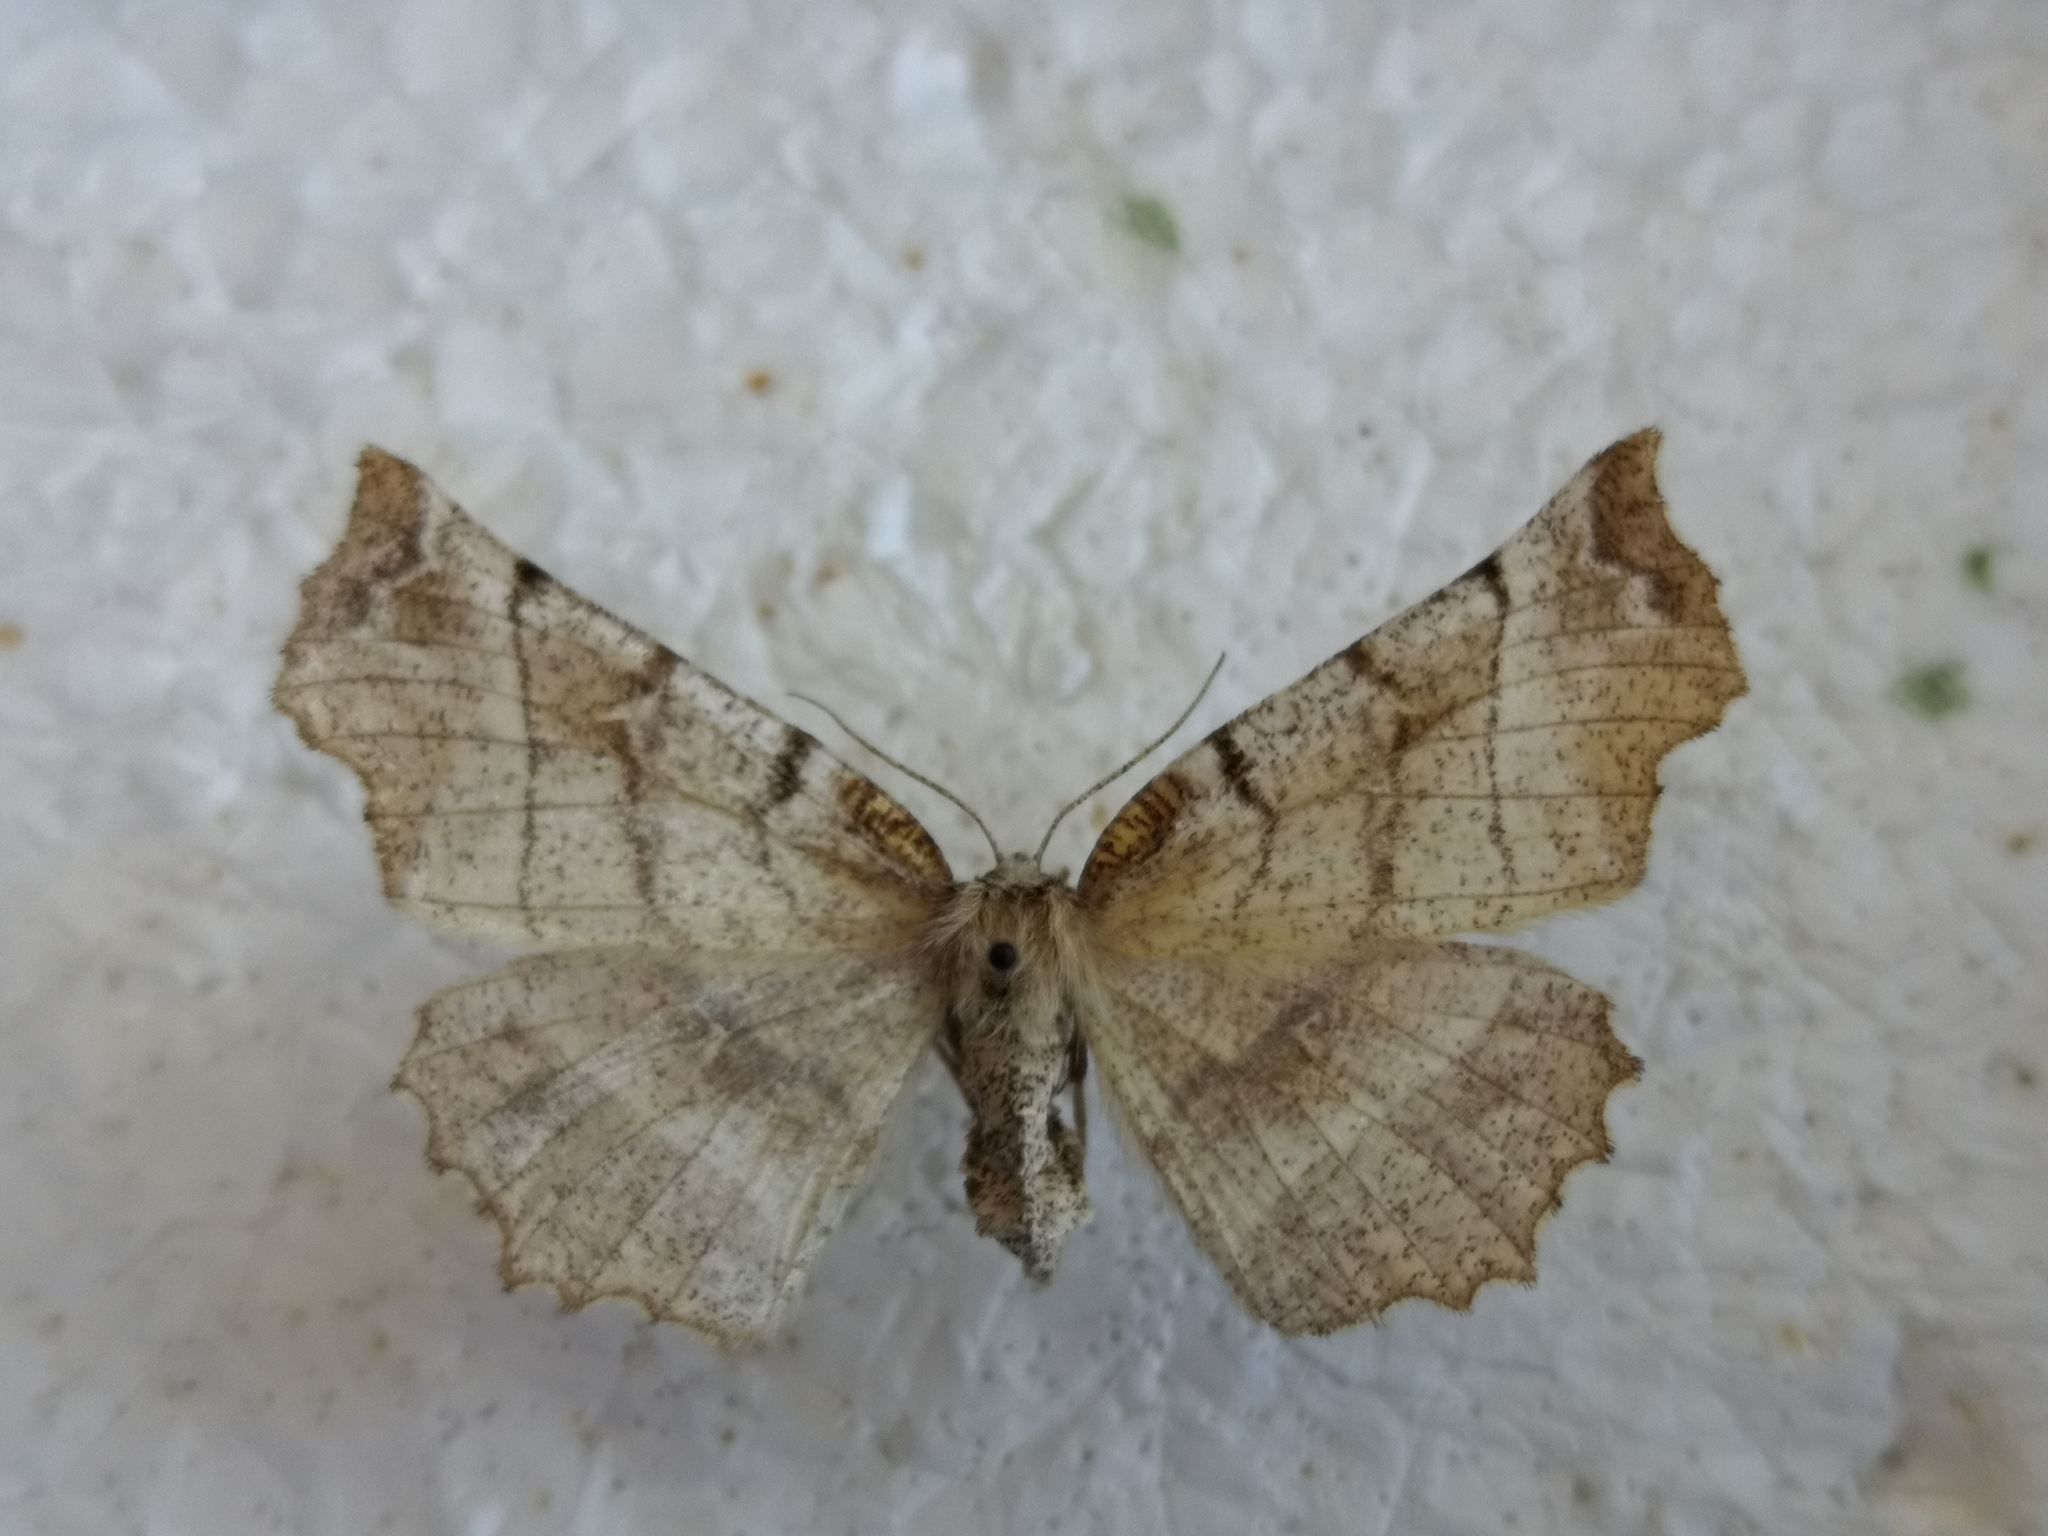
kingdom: Animalia
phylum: Arthropoda
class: Insecta
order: Lepidoptera
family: Geometridae
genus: Selenia
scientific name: Selenia dentaria
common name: Early thorn
